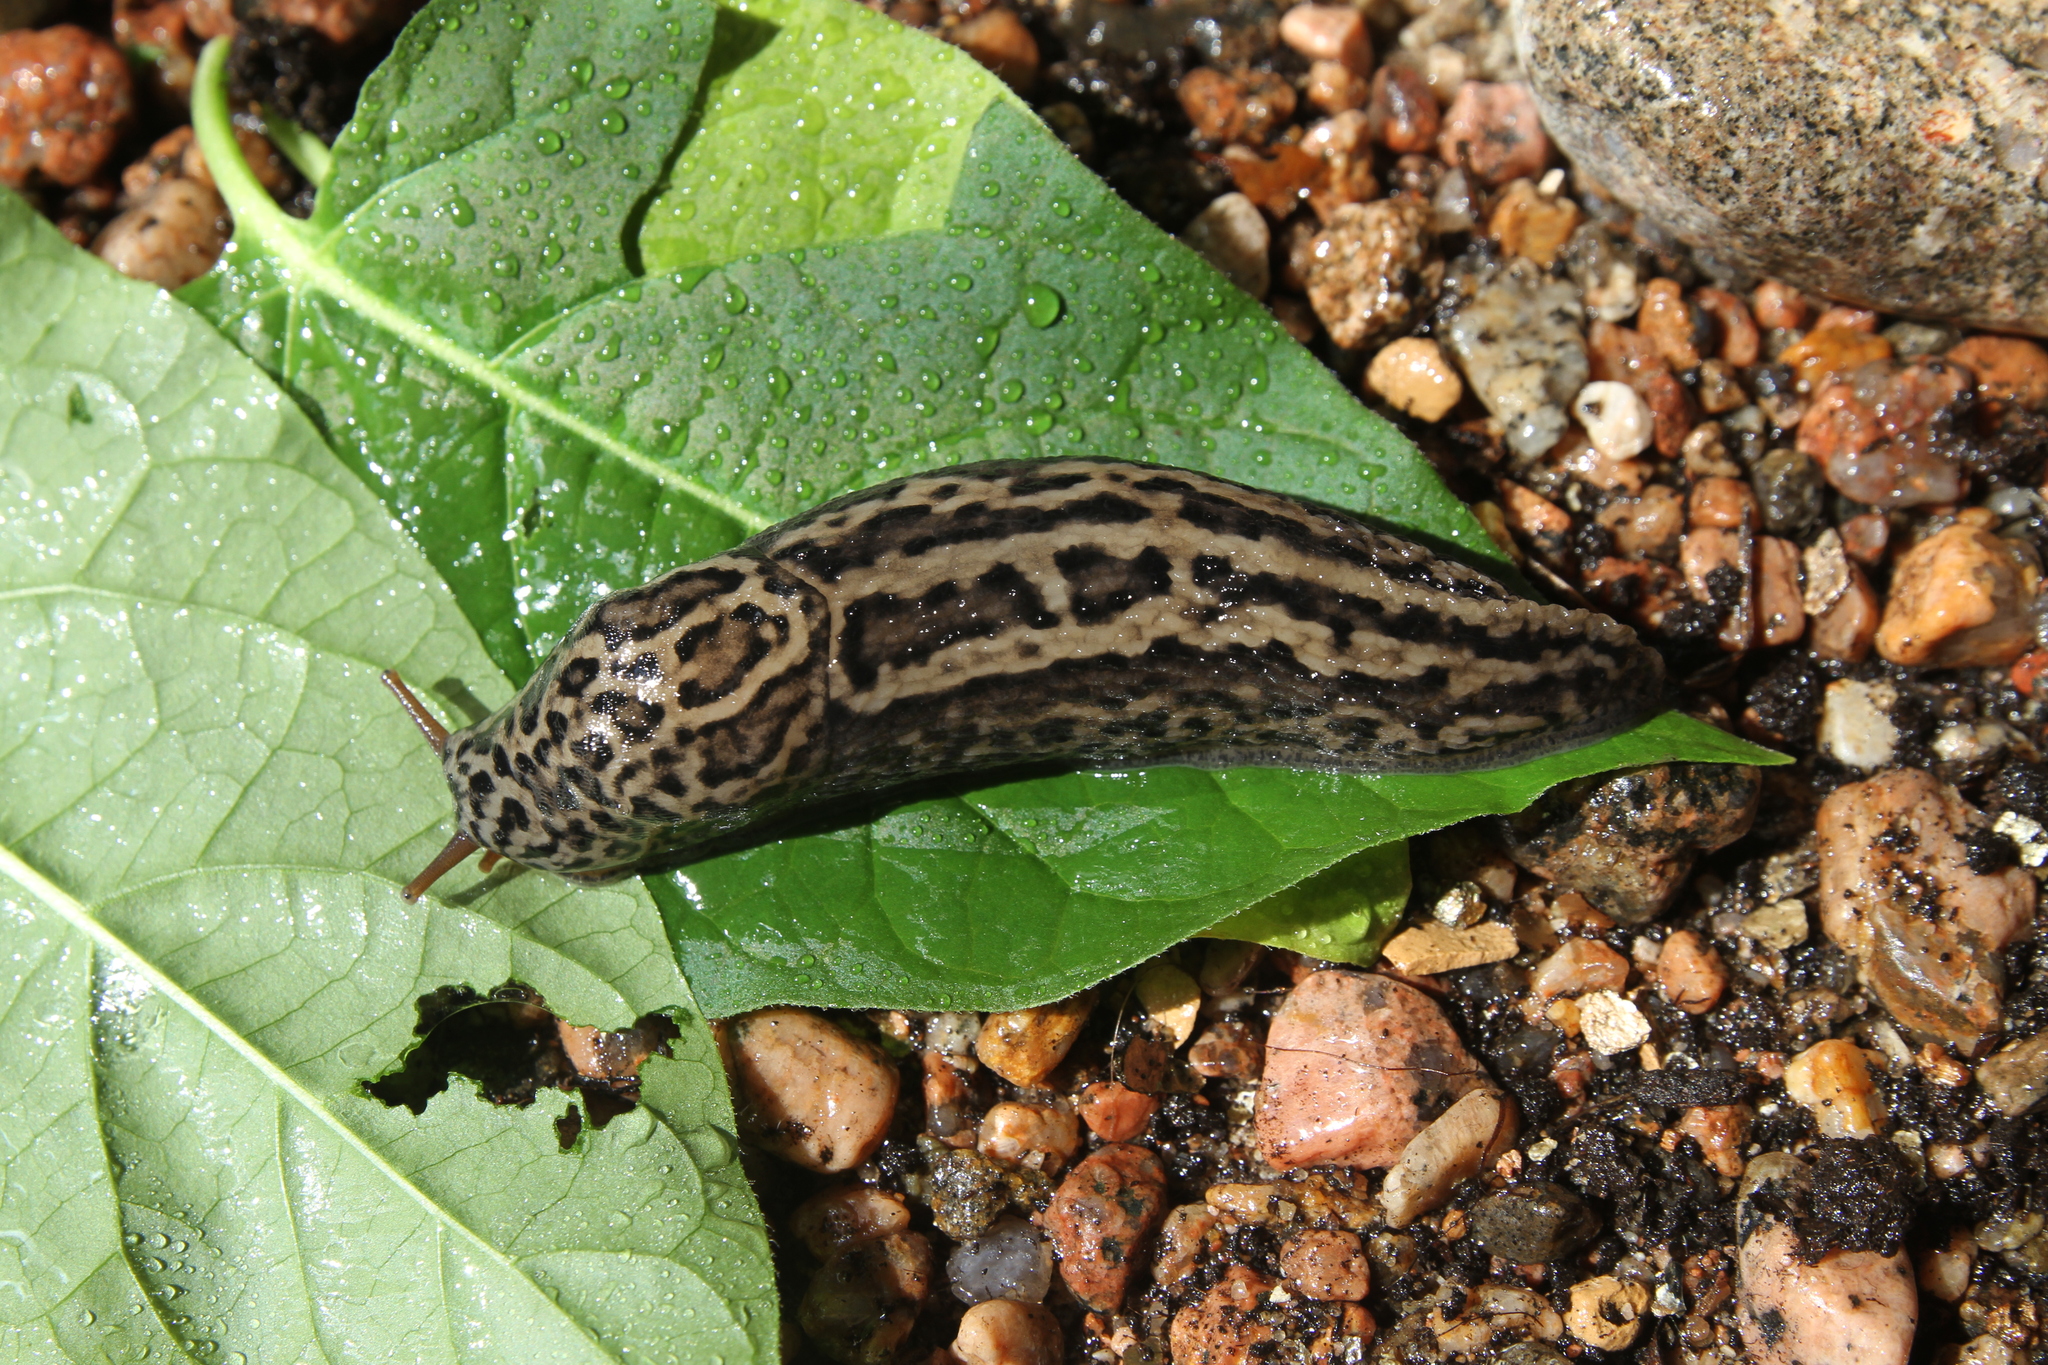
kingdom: Animalia
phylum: Mollusca
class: Gastropoda
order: Stylommatophora
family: Limacidae
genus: Limax
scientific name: Limax maximus
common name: Great grey slug
